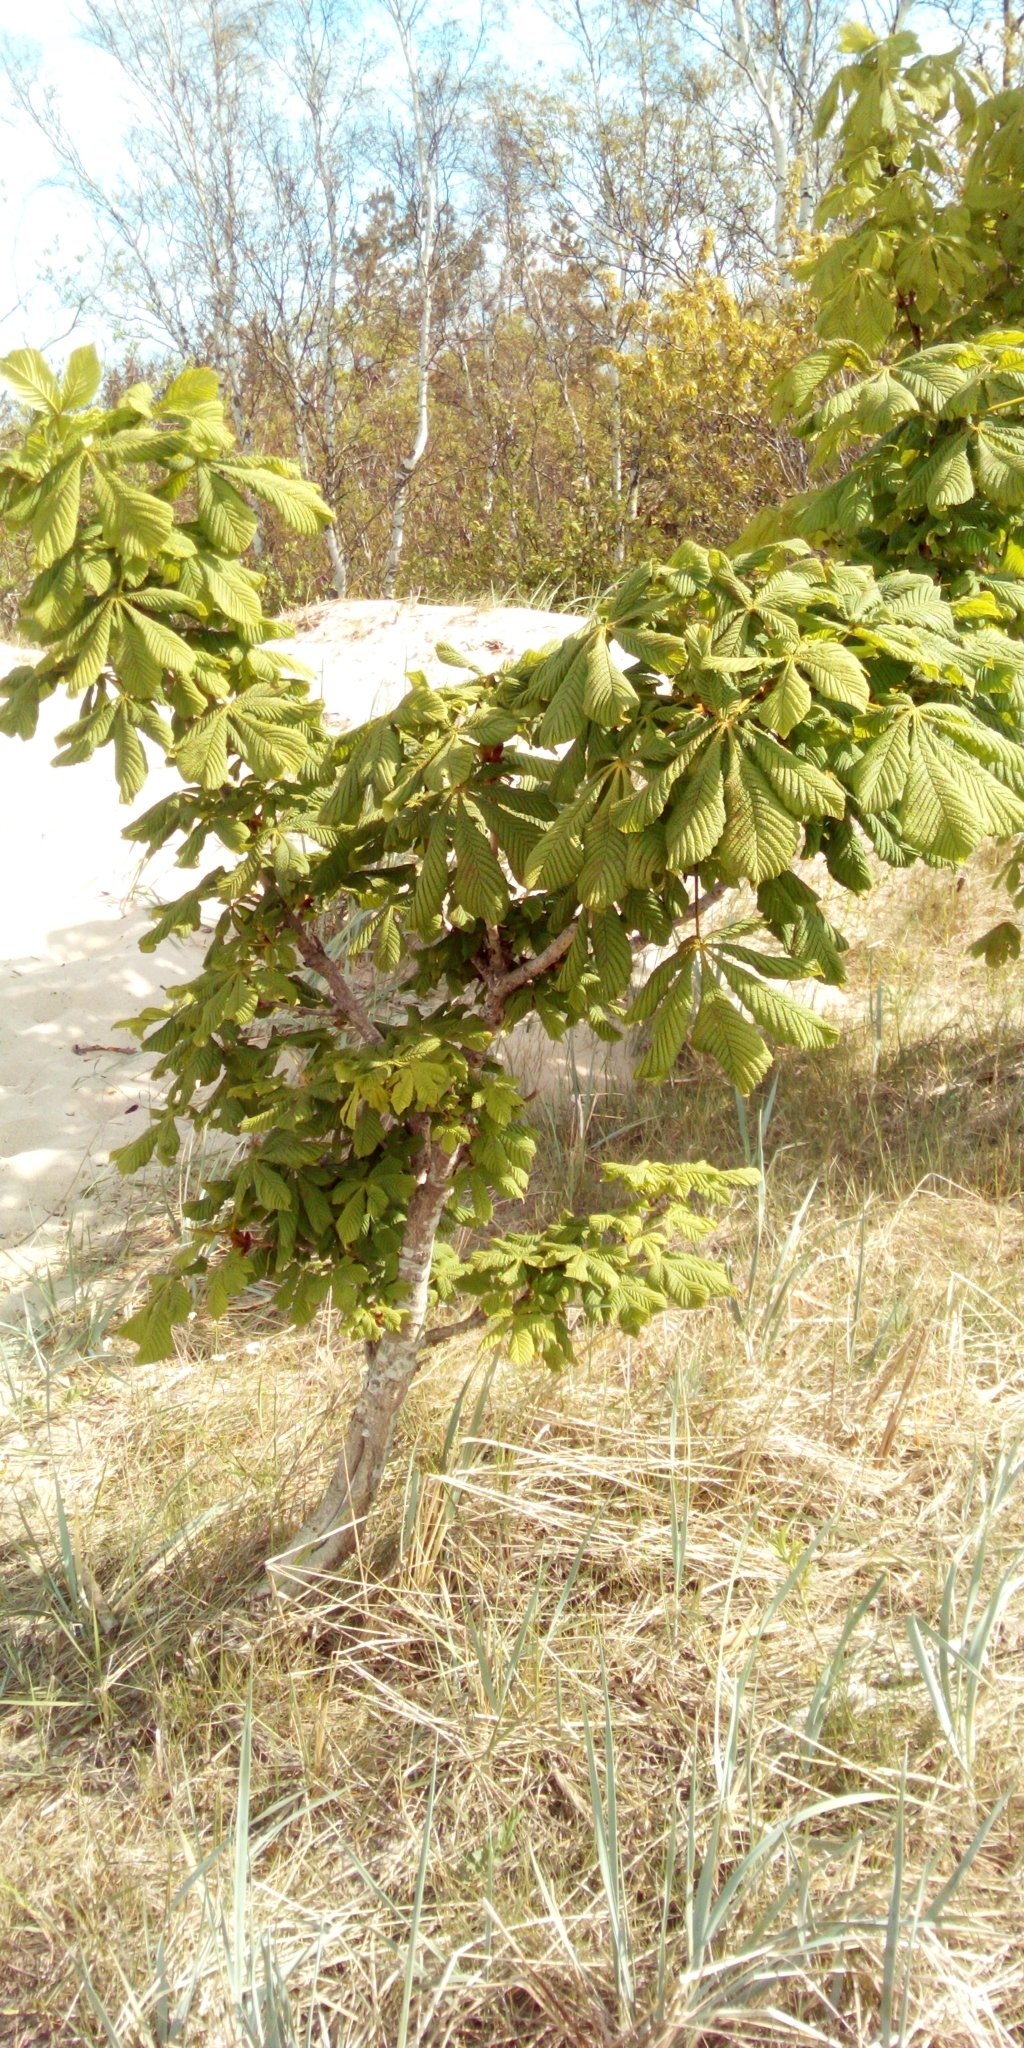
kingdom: Plantae
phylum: Tracheophyta
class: Magnoliopsida
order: Sapindales
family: Sapindaceae
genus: Aesculus
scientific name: Aesculus hippocastanum
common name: Horse-chestnut
